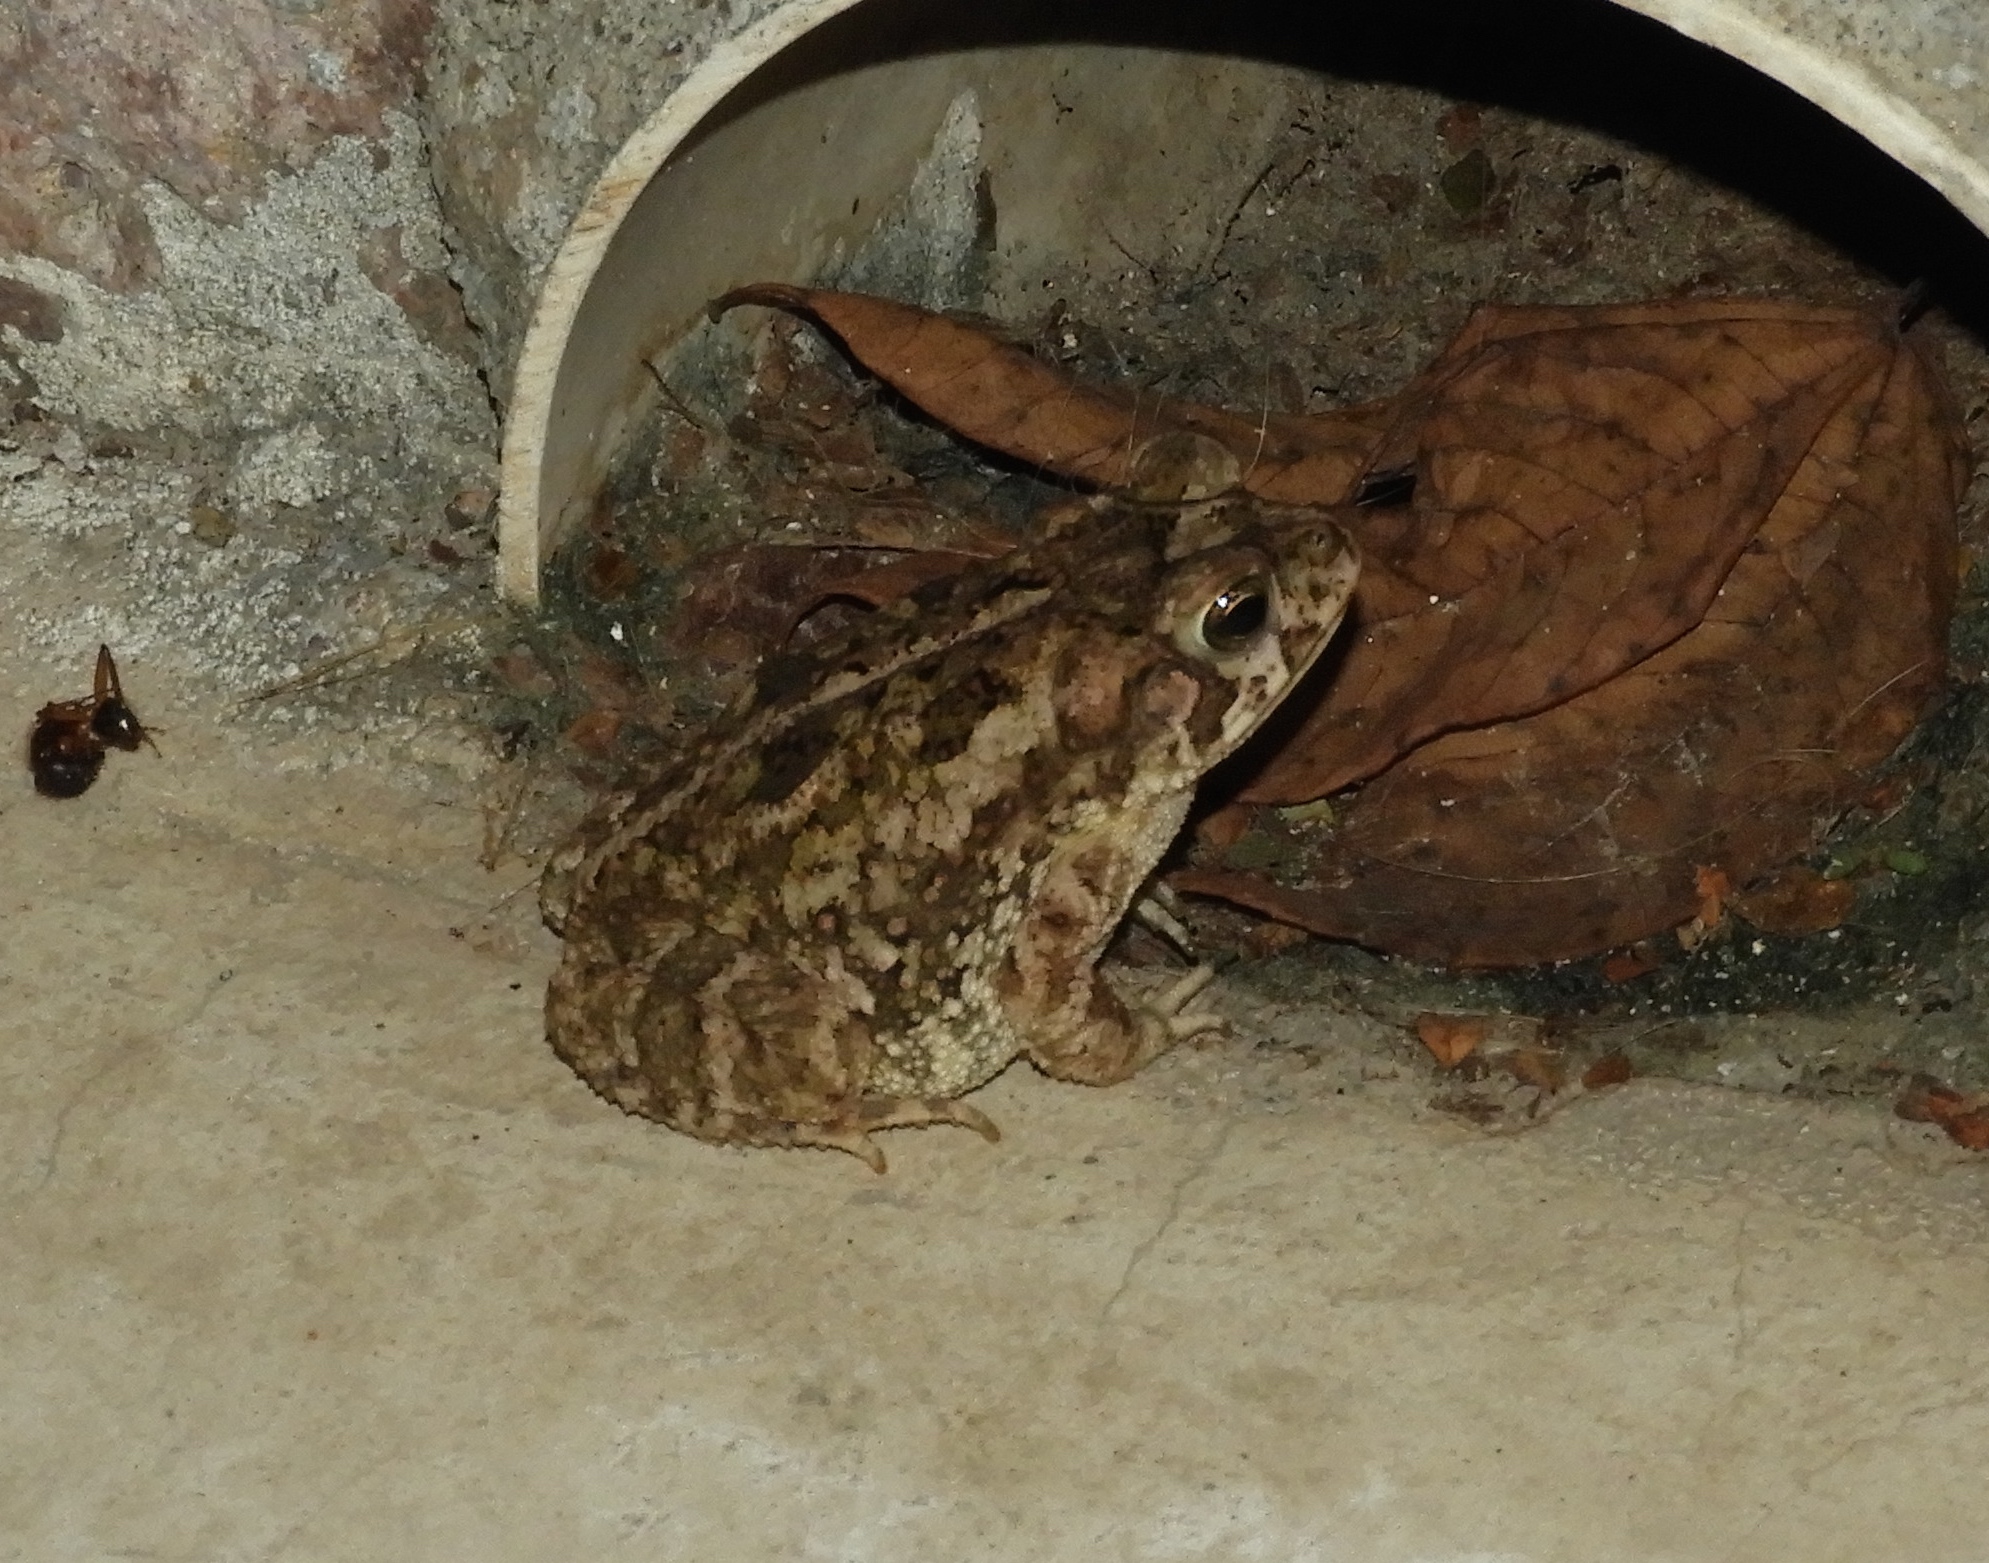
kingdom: Animalia
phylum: Chordata
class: Amphibia
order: Anura
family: Bufonidae
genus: Incilius
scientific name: Incilius mazatlanensis
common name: Sinaloa toad
